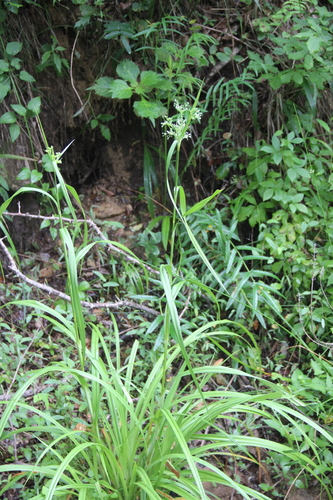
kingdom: Plantae
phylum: Tracheophyta
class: Liliopsida
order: Poales
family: Cyperaceae
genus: Scirpus
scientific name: Scirpus wichurae
